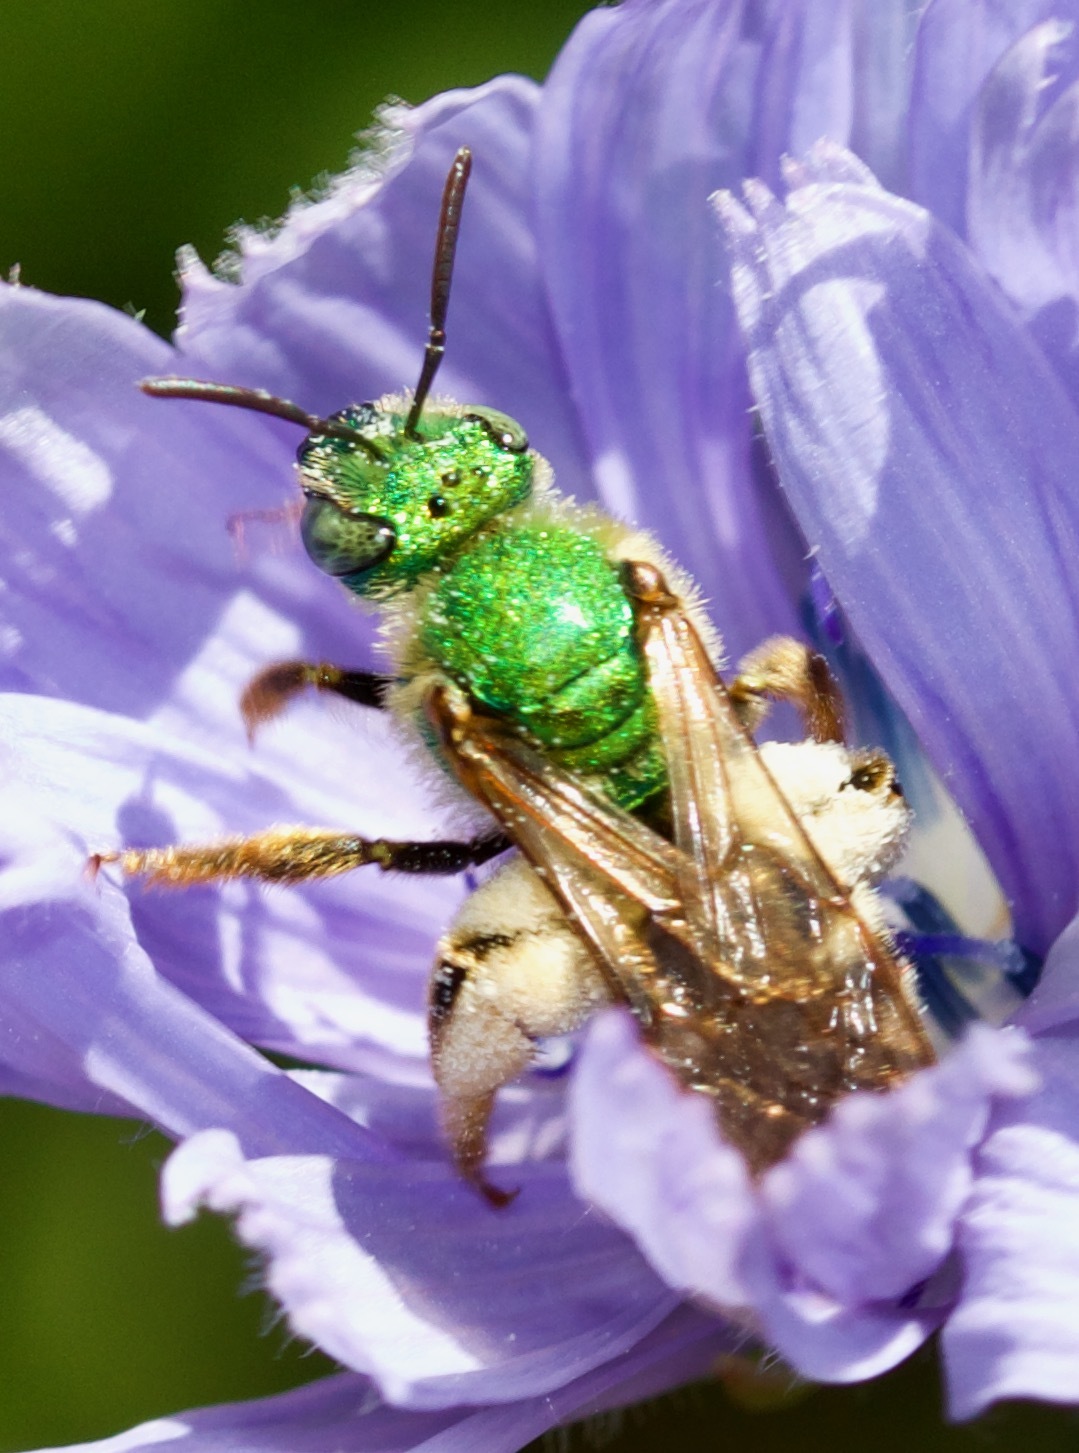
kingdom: Animalia
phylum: Arthropoda
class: Insecta
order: Hymenoptera
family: Halictidae
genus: Agapostemon
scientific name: Agapostemon virescens
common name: Bicolored striped sweat bee
